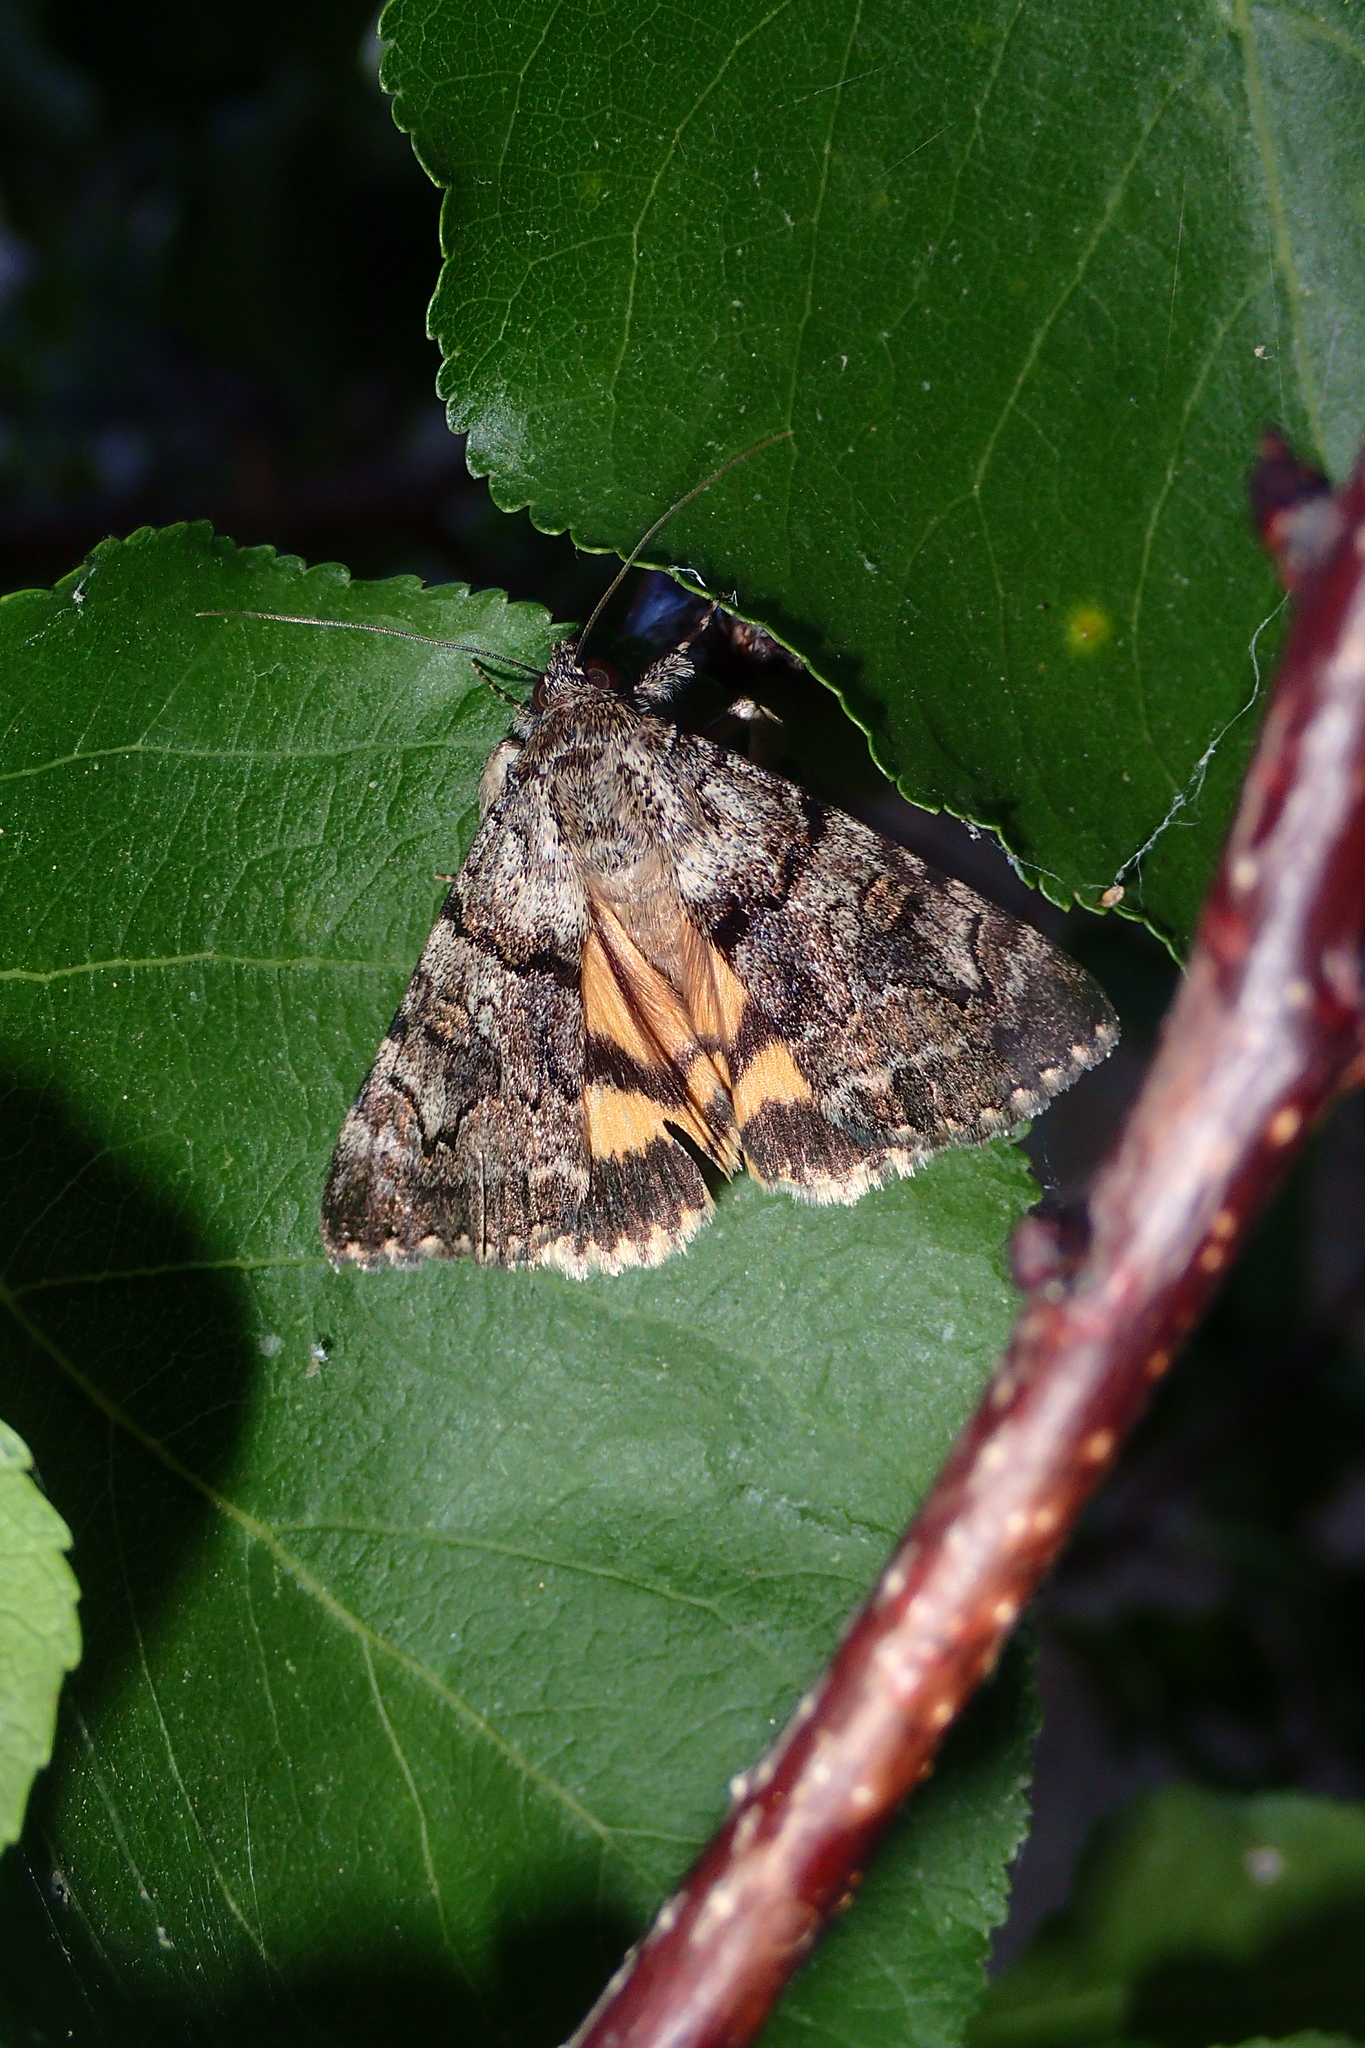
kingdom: Animalia
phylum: Arthropoda
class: Insecta
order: Lepidoptera
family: Erebidae
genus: Catocala
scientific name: Catocala nymphagoga
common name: Oak yellow underwing
